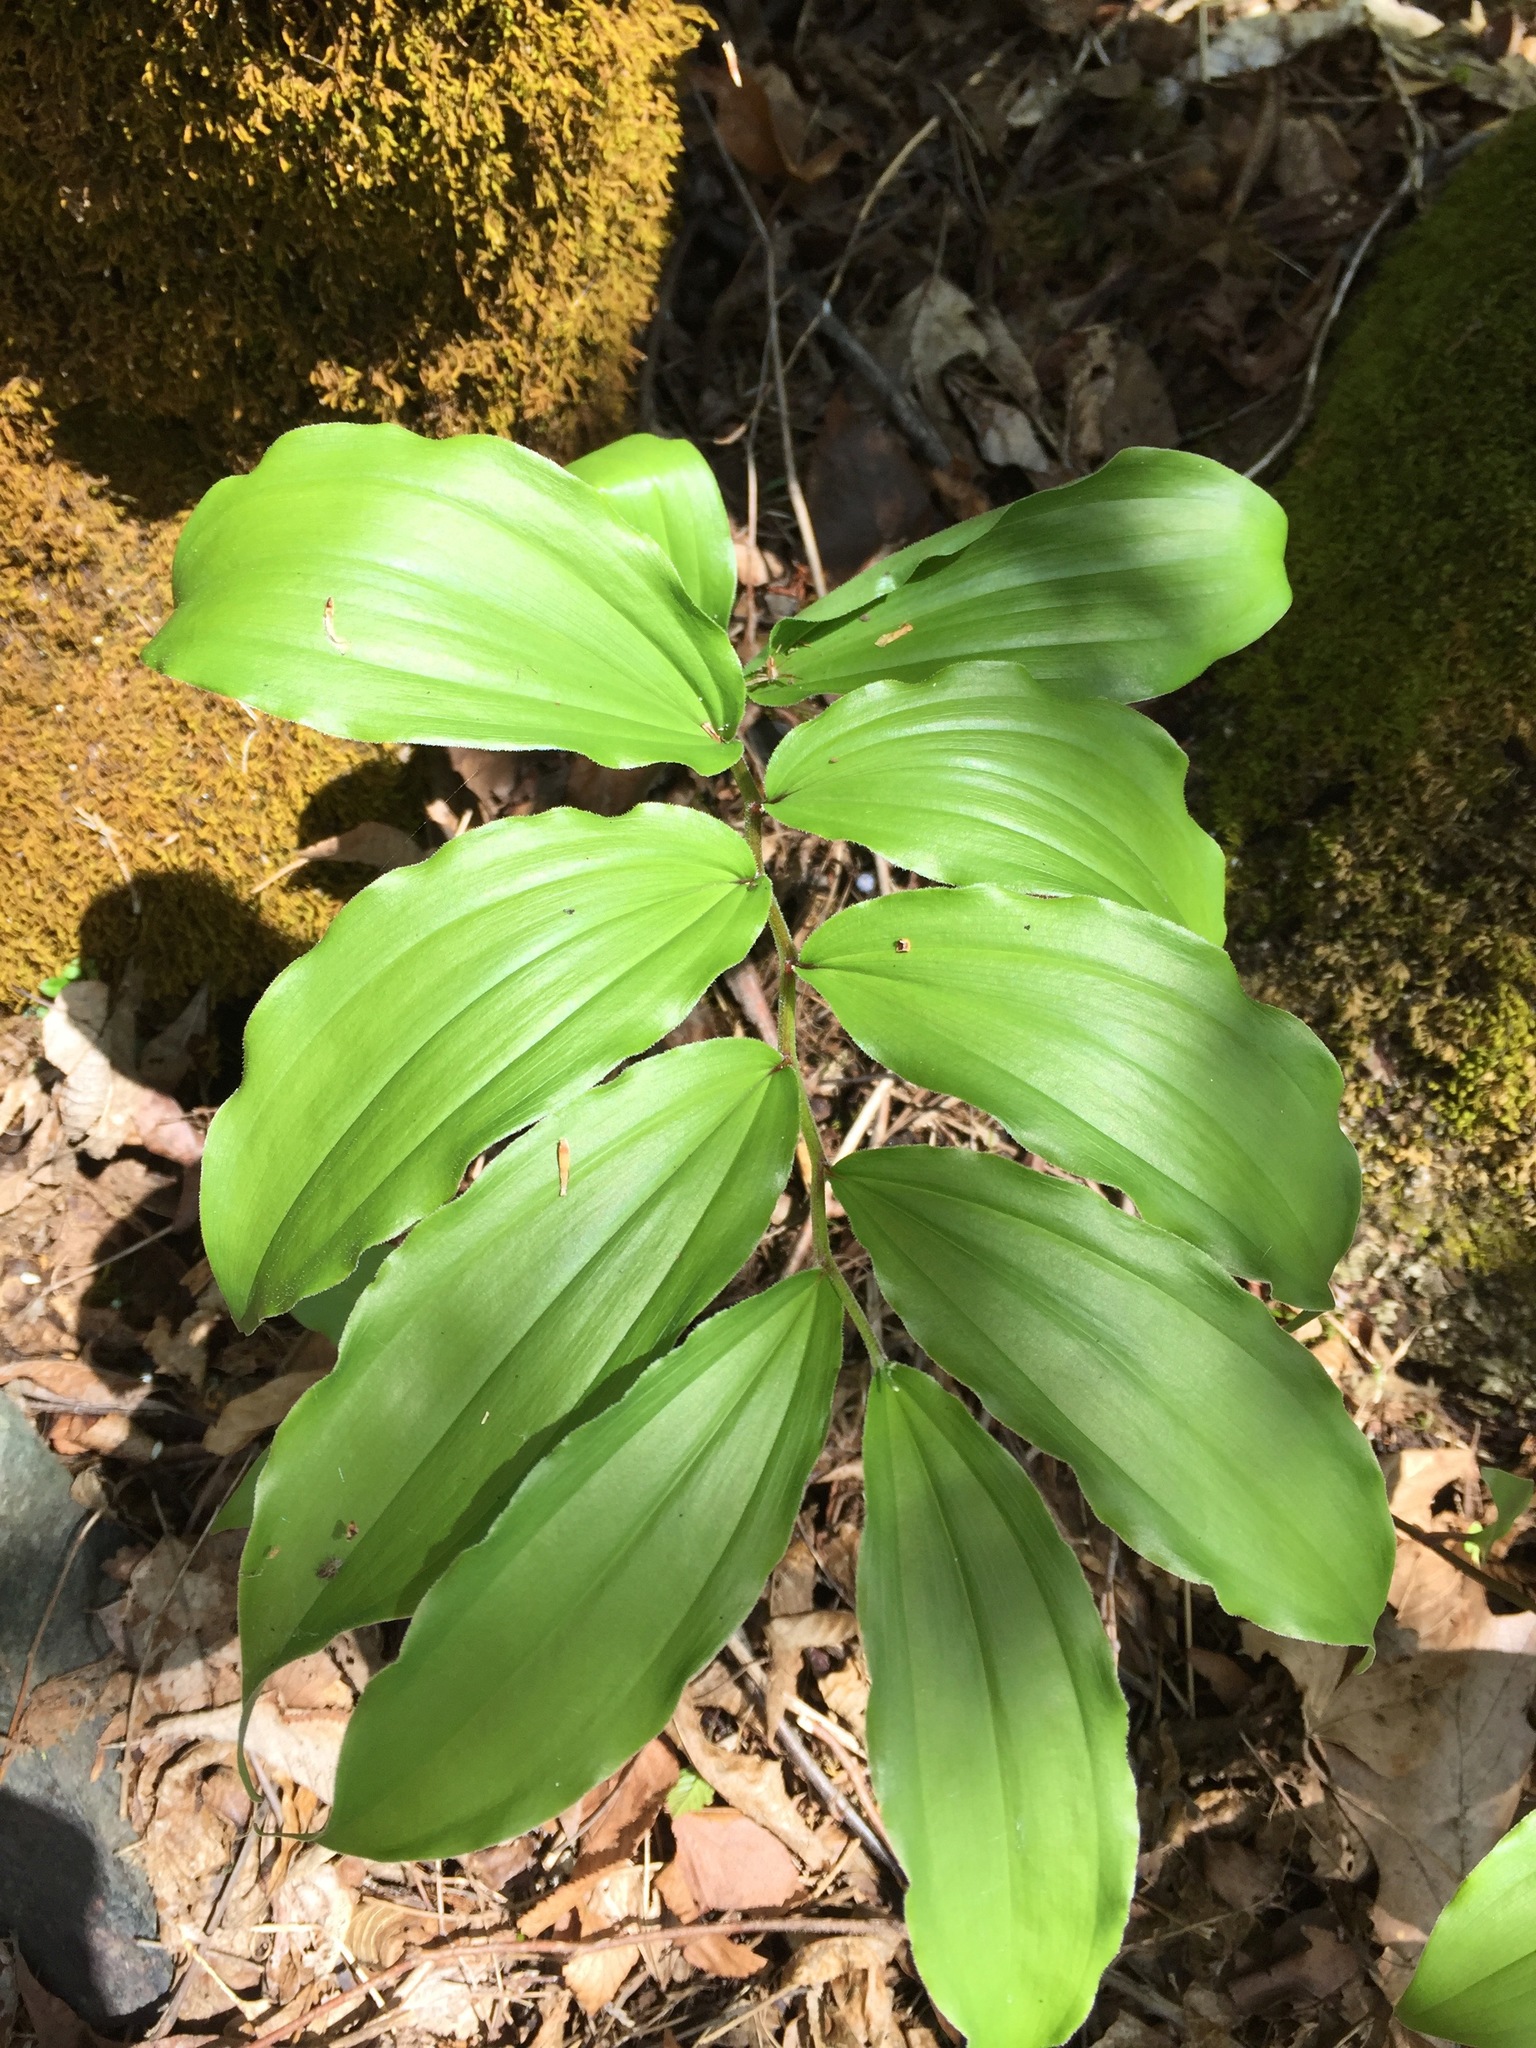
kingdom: Plantae
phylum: Tracheophyta
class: Liliopsida
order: Asparagales
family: Asparagaceae
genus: Maianthemum
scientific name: Maianthemum racemosum
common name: False spikenard
